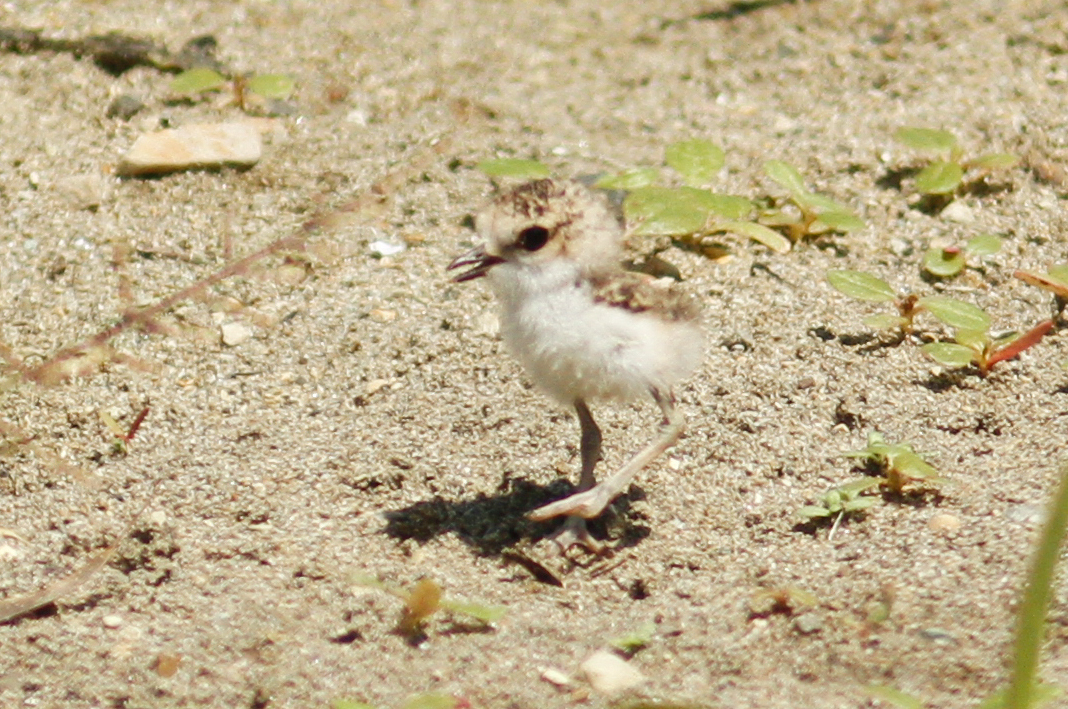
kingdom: Animalia
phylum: Chordata
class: Aves
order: Charadriiformes
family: Charadriidae
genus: Anarhynchus
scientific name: Anarhynchus
